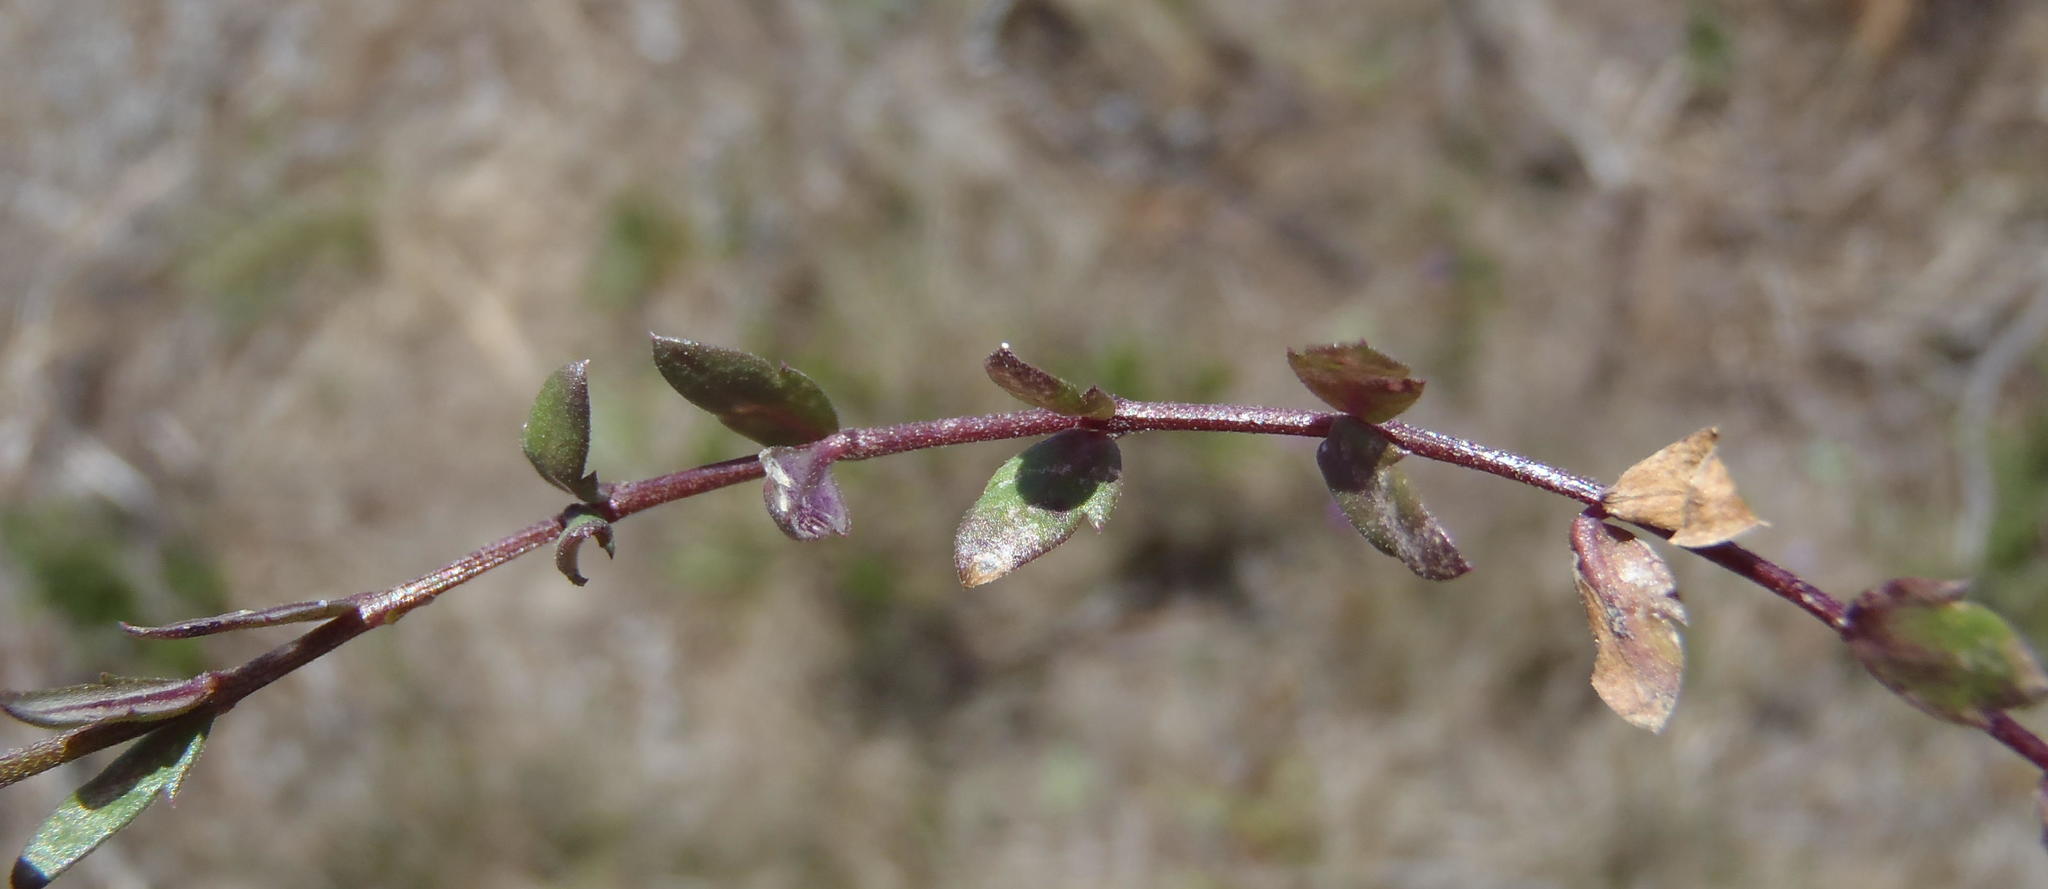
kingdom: Plantae
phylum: Tracheophyta
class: Magnoliopsida
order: Asterales
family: Campanulaceae
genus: Monopsis
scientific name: Monopsis unidentata
